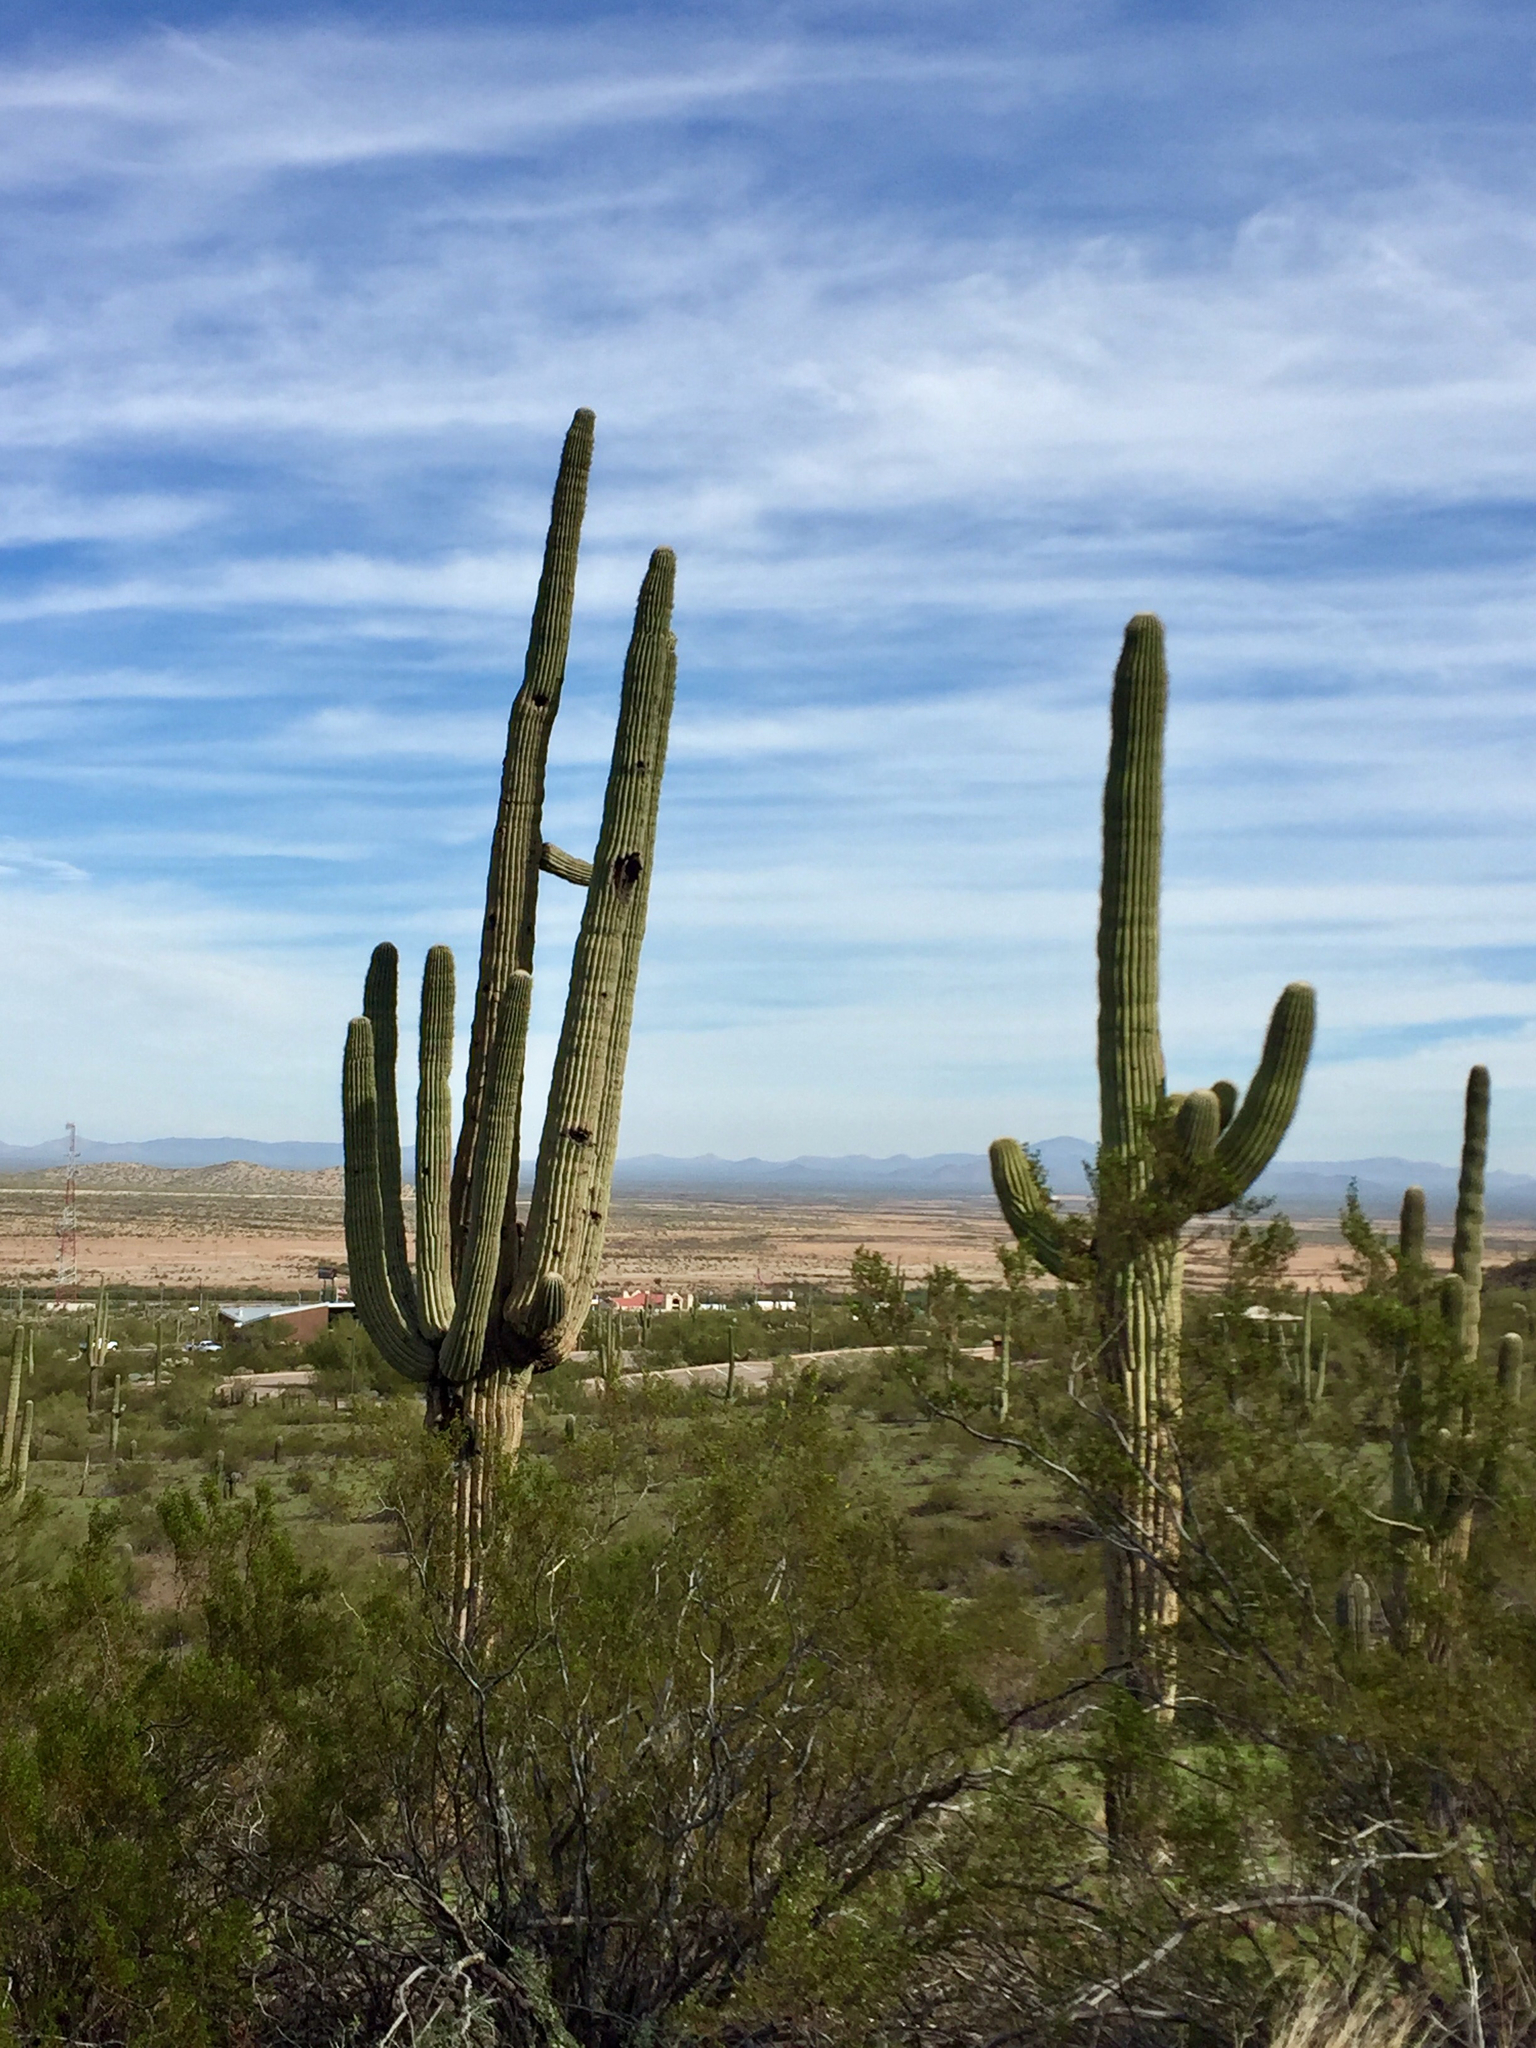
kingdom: Plantae
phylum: Tracheophyta
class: Magnoliopsida
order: Caryophyllales
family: Cactaceae
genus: Carnegiea
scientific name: Carnegiea gigantea
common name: Saguaro
